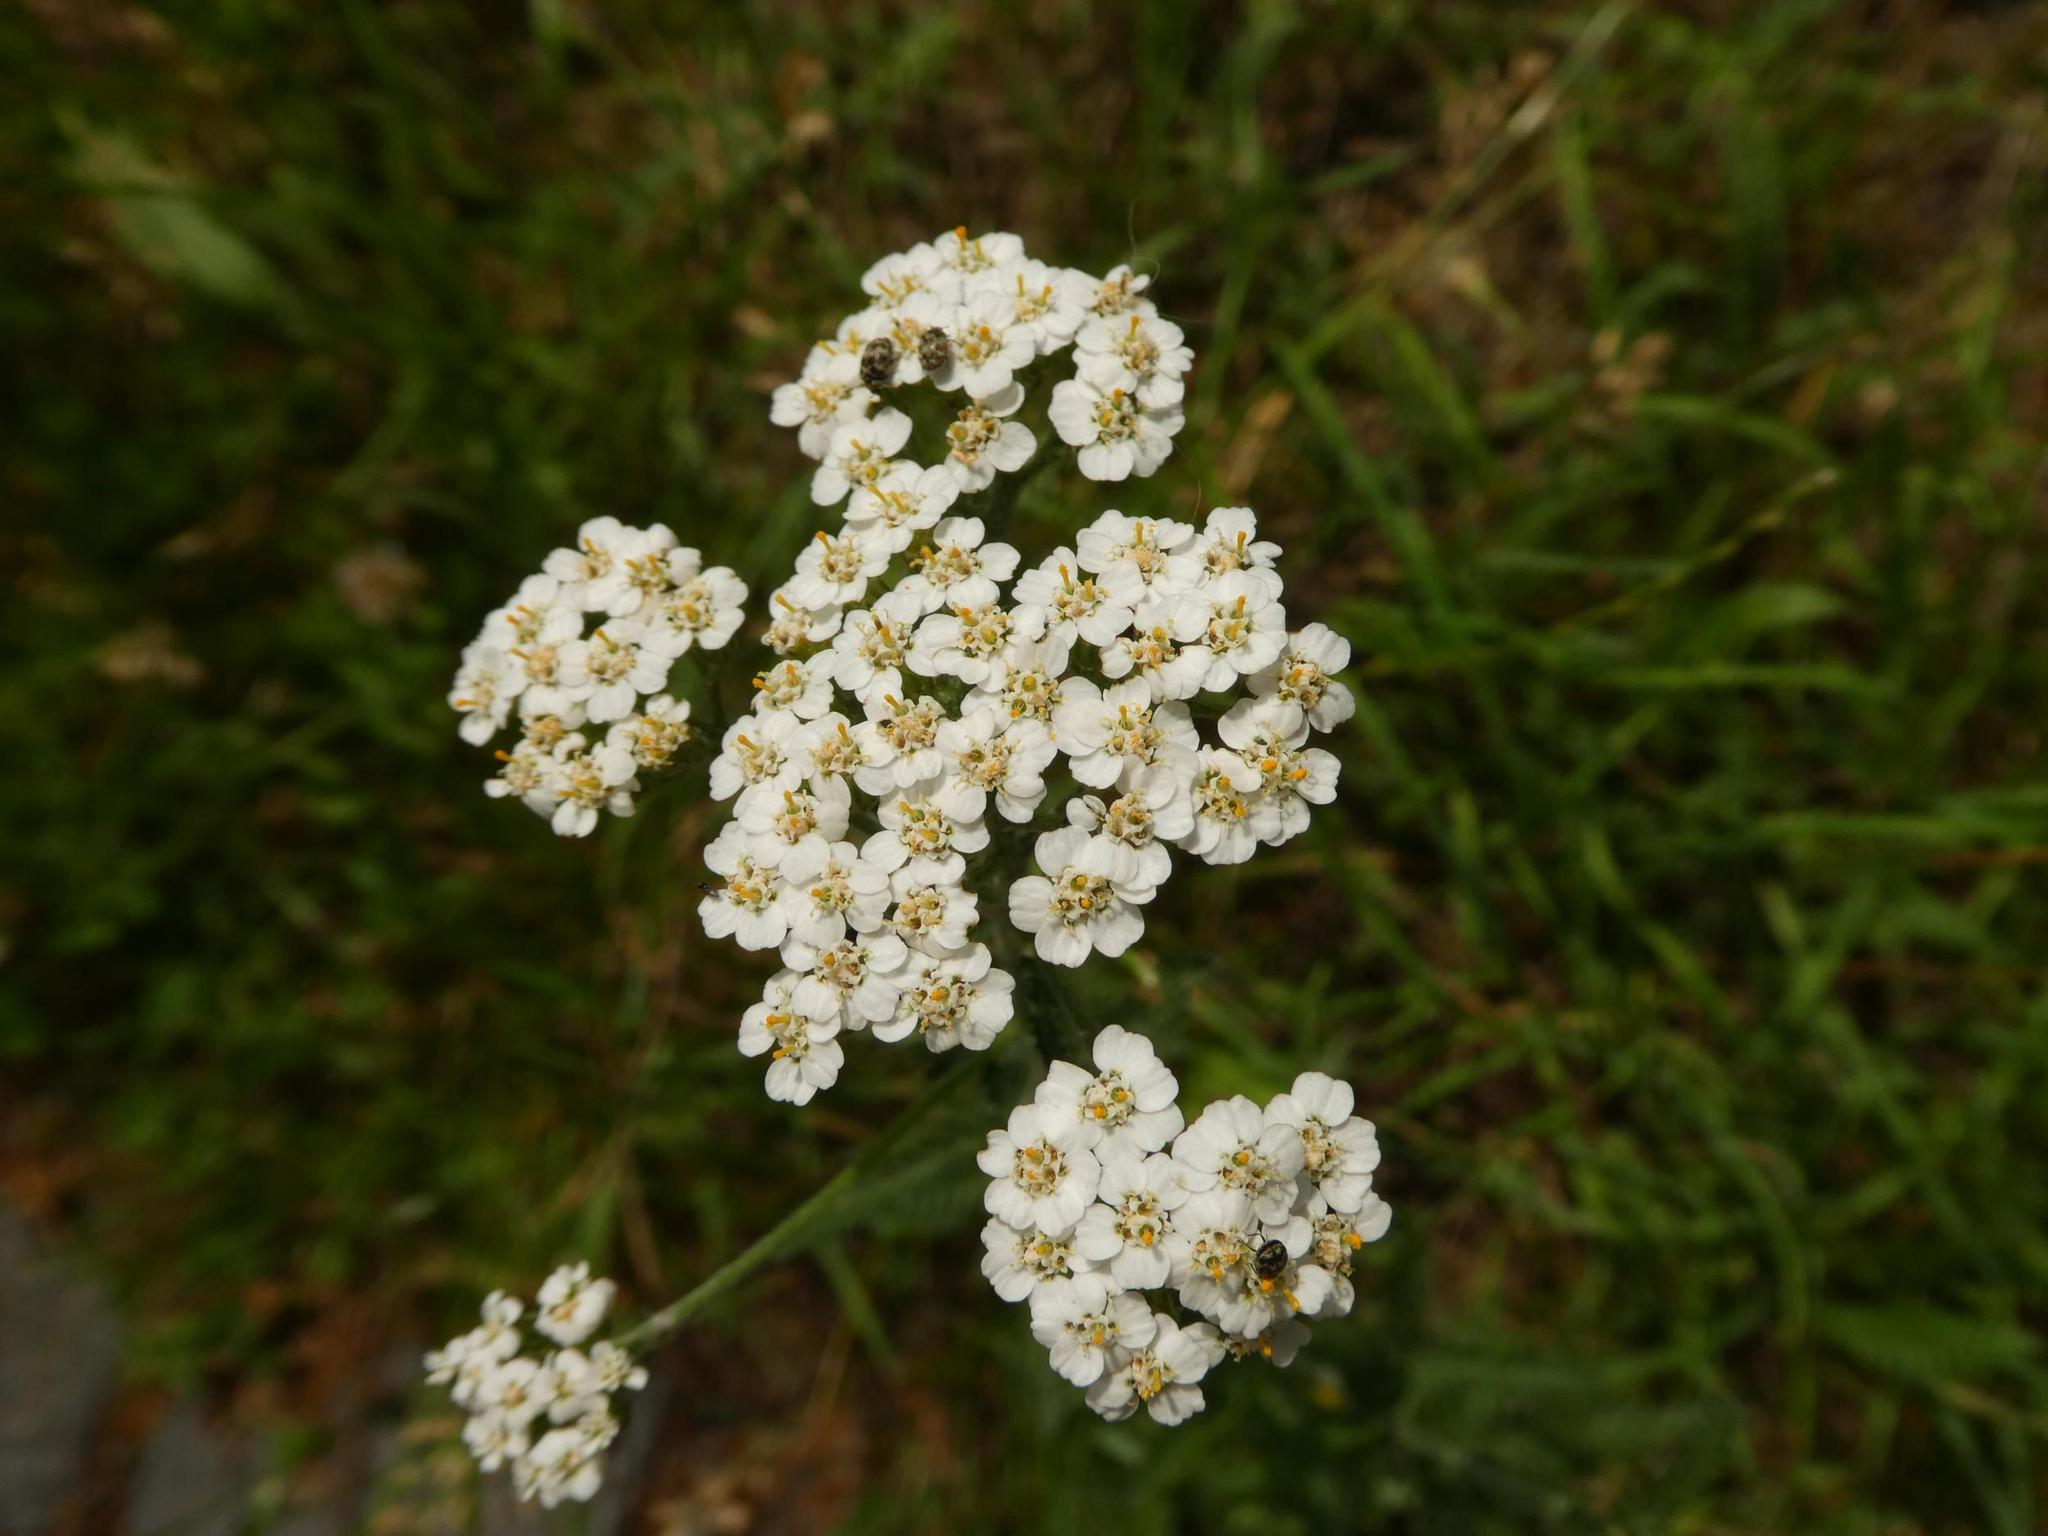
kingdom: Plantae
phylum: Tracheophyta
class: Magnoliopsida
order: Asterales
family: Asteraceae
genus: Achillea
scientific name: Achillea millefolium
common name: Yarrow
